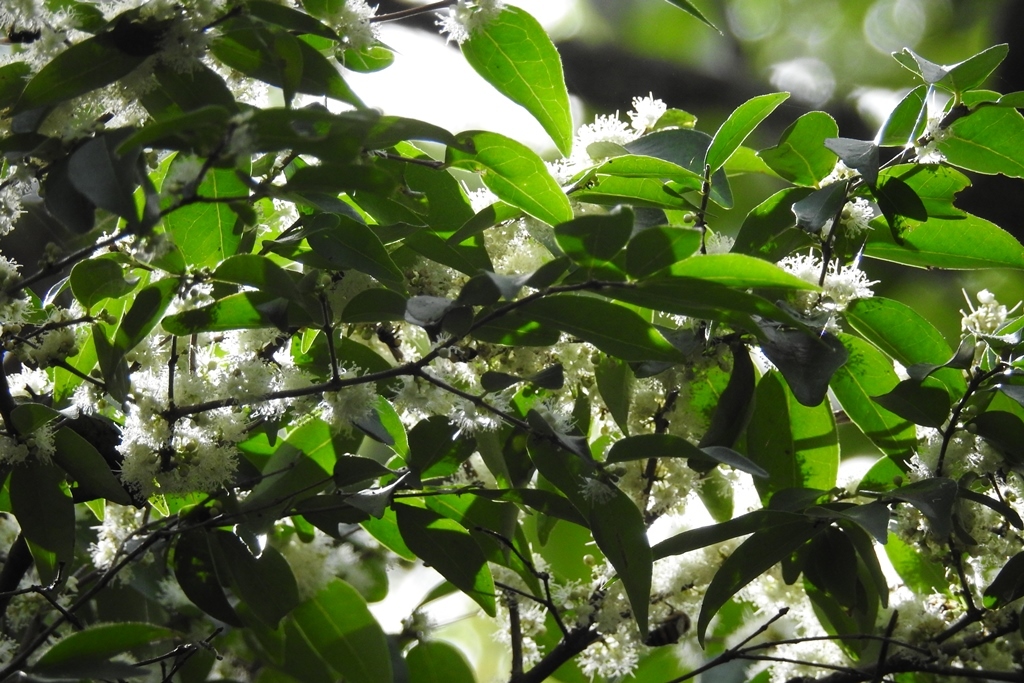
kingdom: Plantae
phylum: Tracheophyta
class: Magnoliopsida
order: Myrtales
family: Myrtaceae
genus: Eugenia
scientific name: Eugenia capuli
